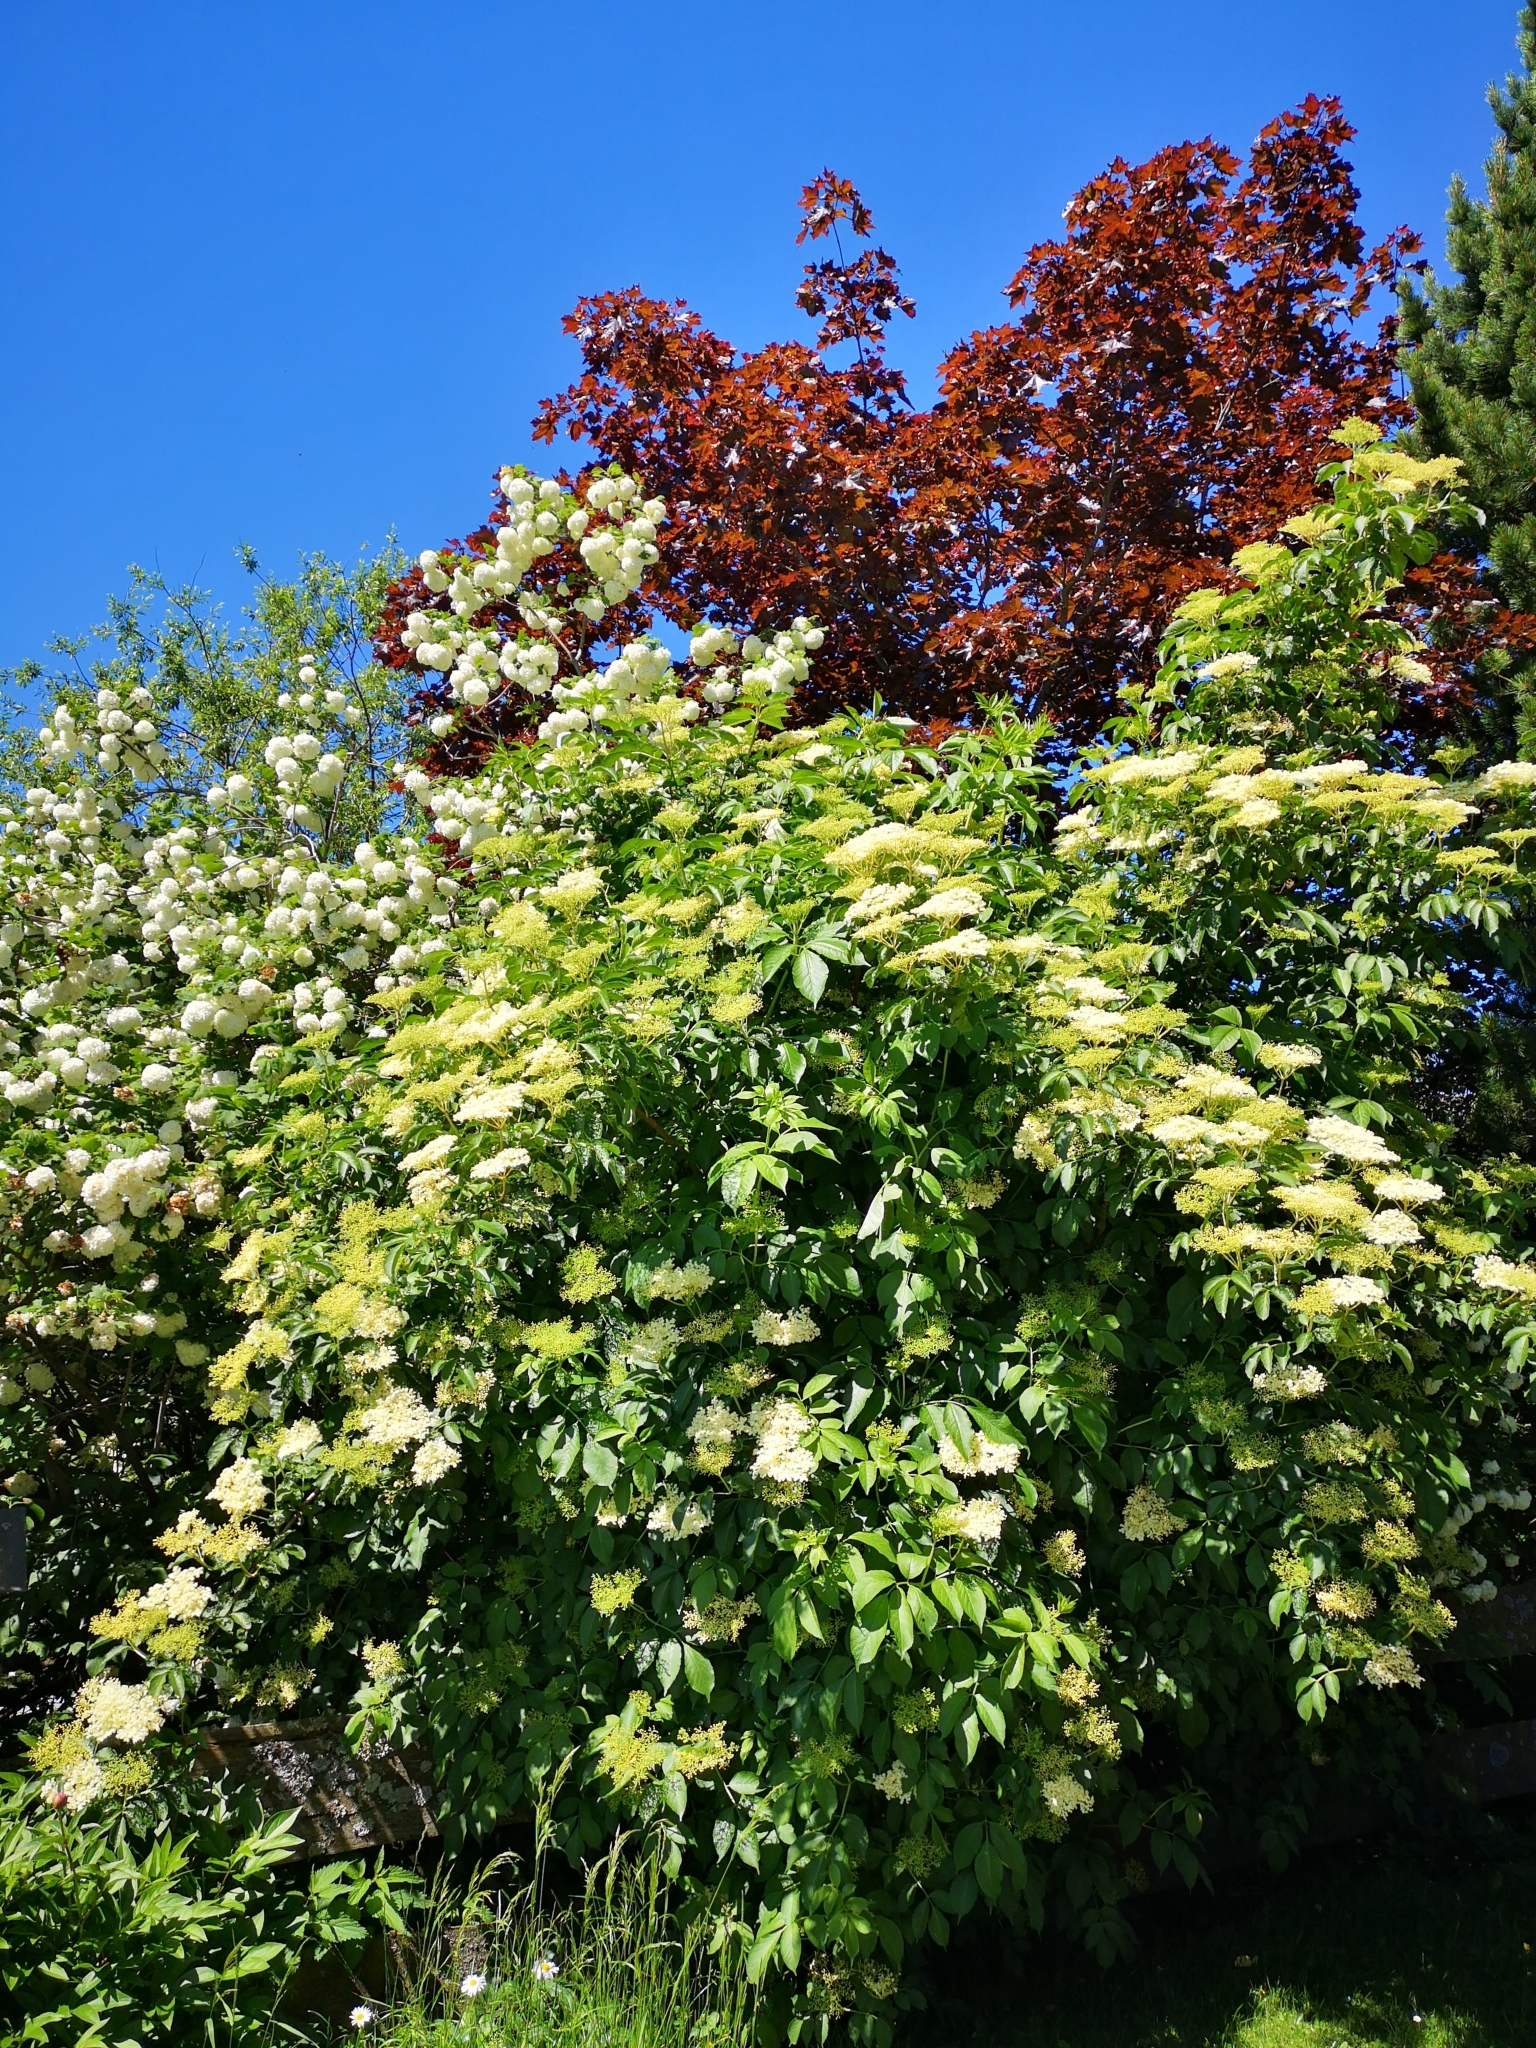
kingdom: Plantae
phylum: Tracheophyta
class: Magnoliopsida
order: Dipsacales
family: Viburnaceae
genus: Sambucus
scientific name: Sambucus nigra
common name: Elder
